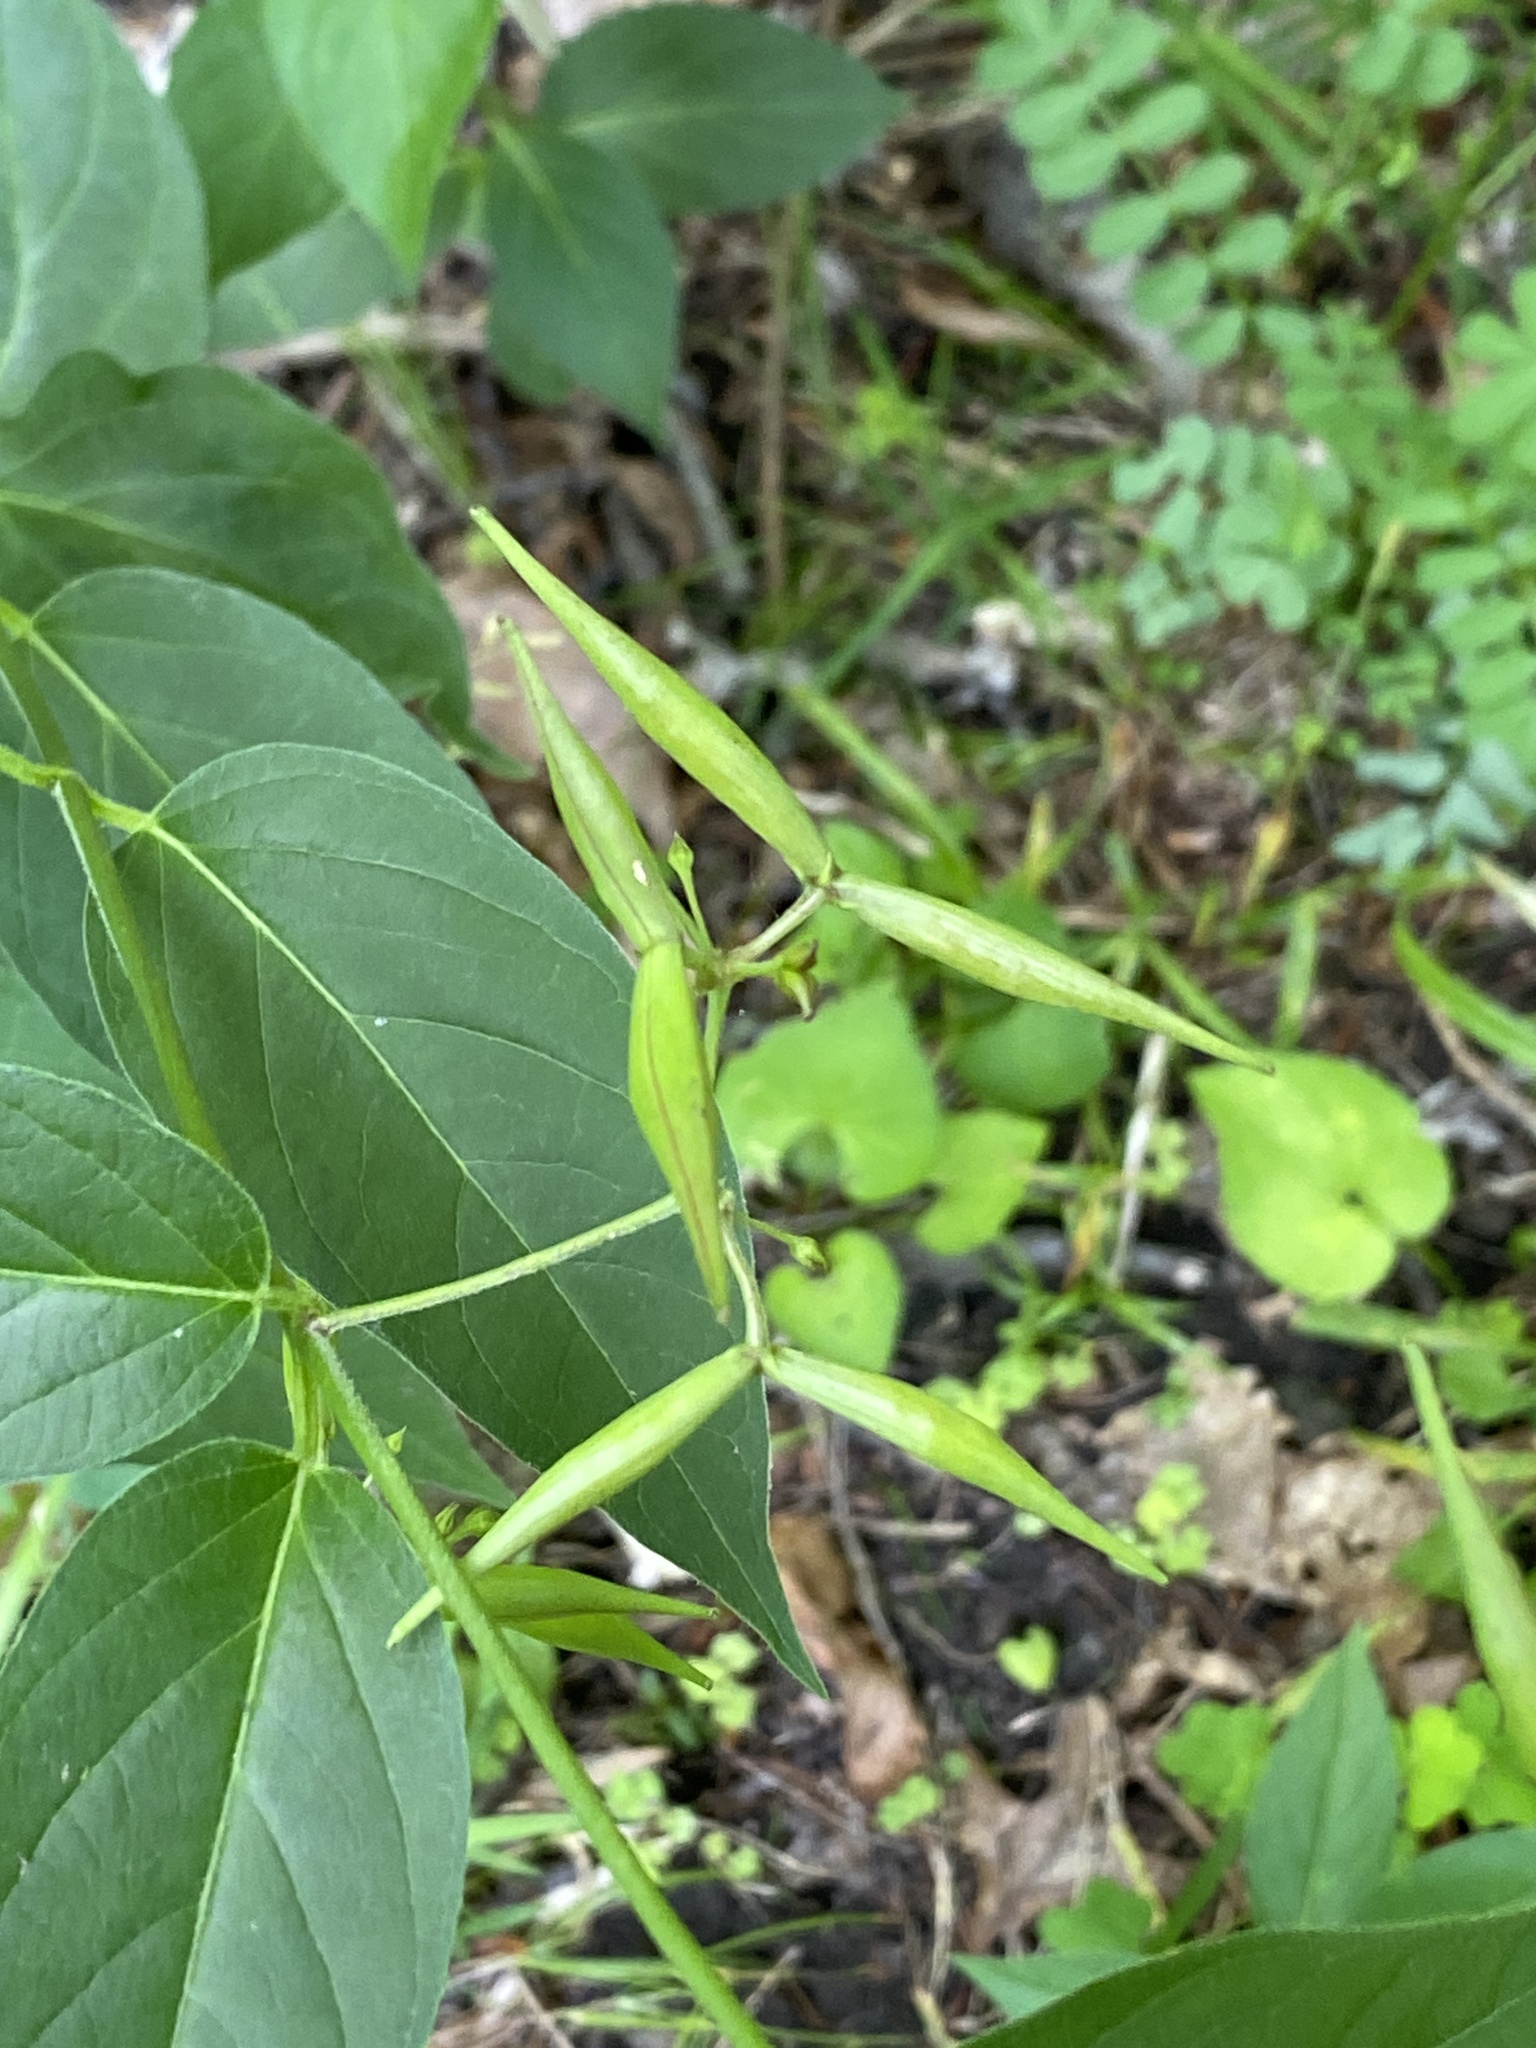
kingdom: Plantae
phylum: Tracheophyta
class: Magnoliopsida
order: Gentianales
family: Apocynaceae
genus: Vincetoxicum
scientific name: Vincetoxicum rossicum
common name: Dog-strangling vine
